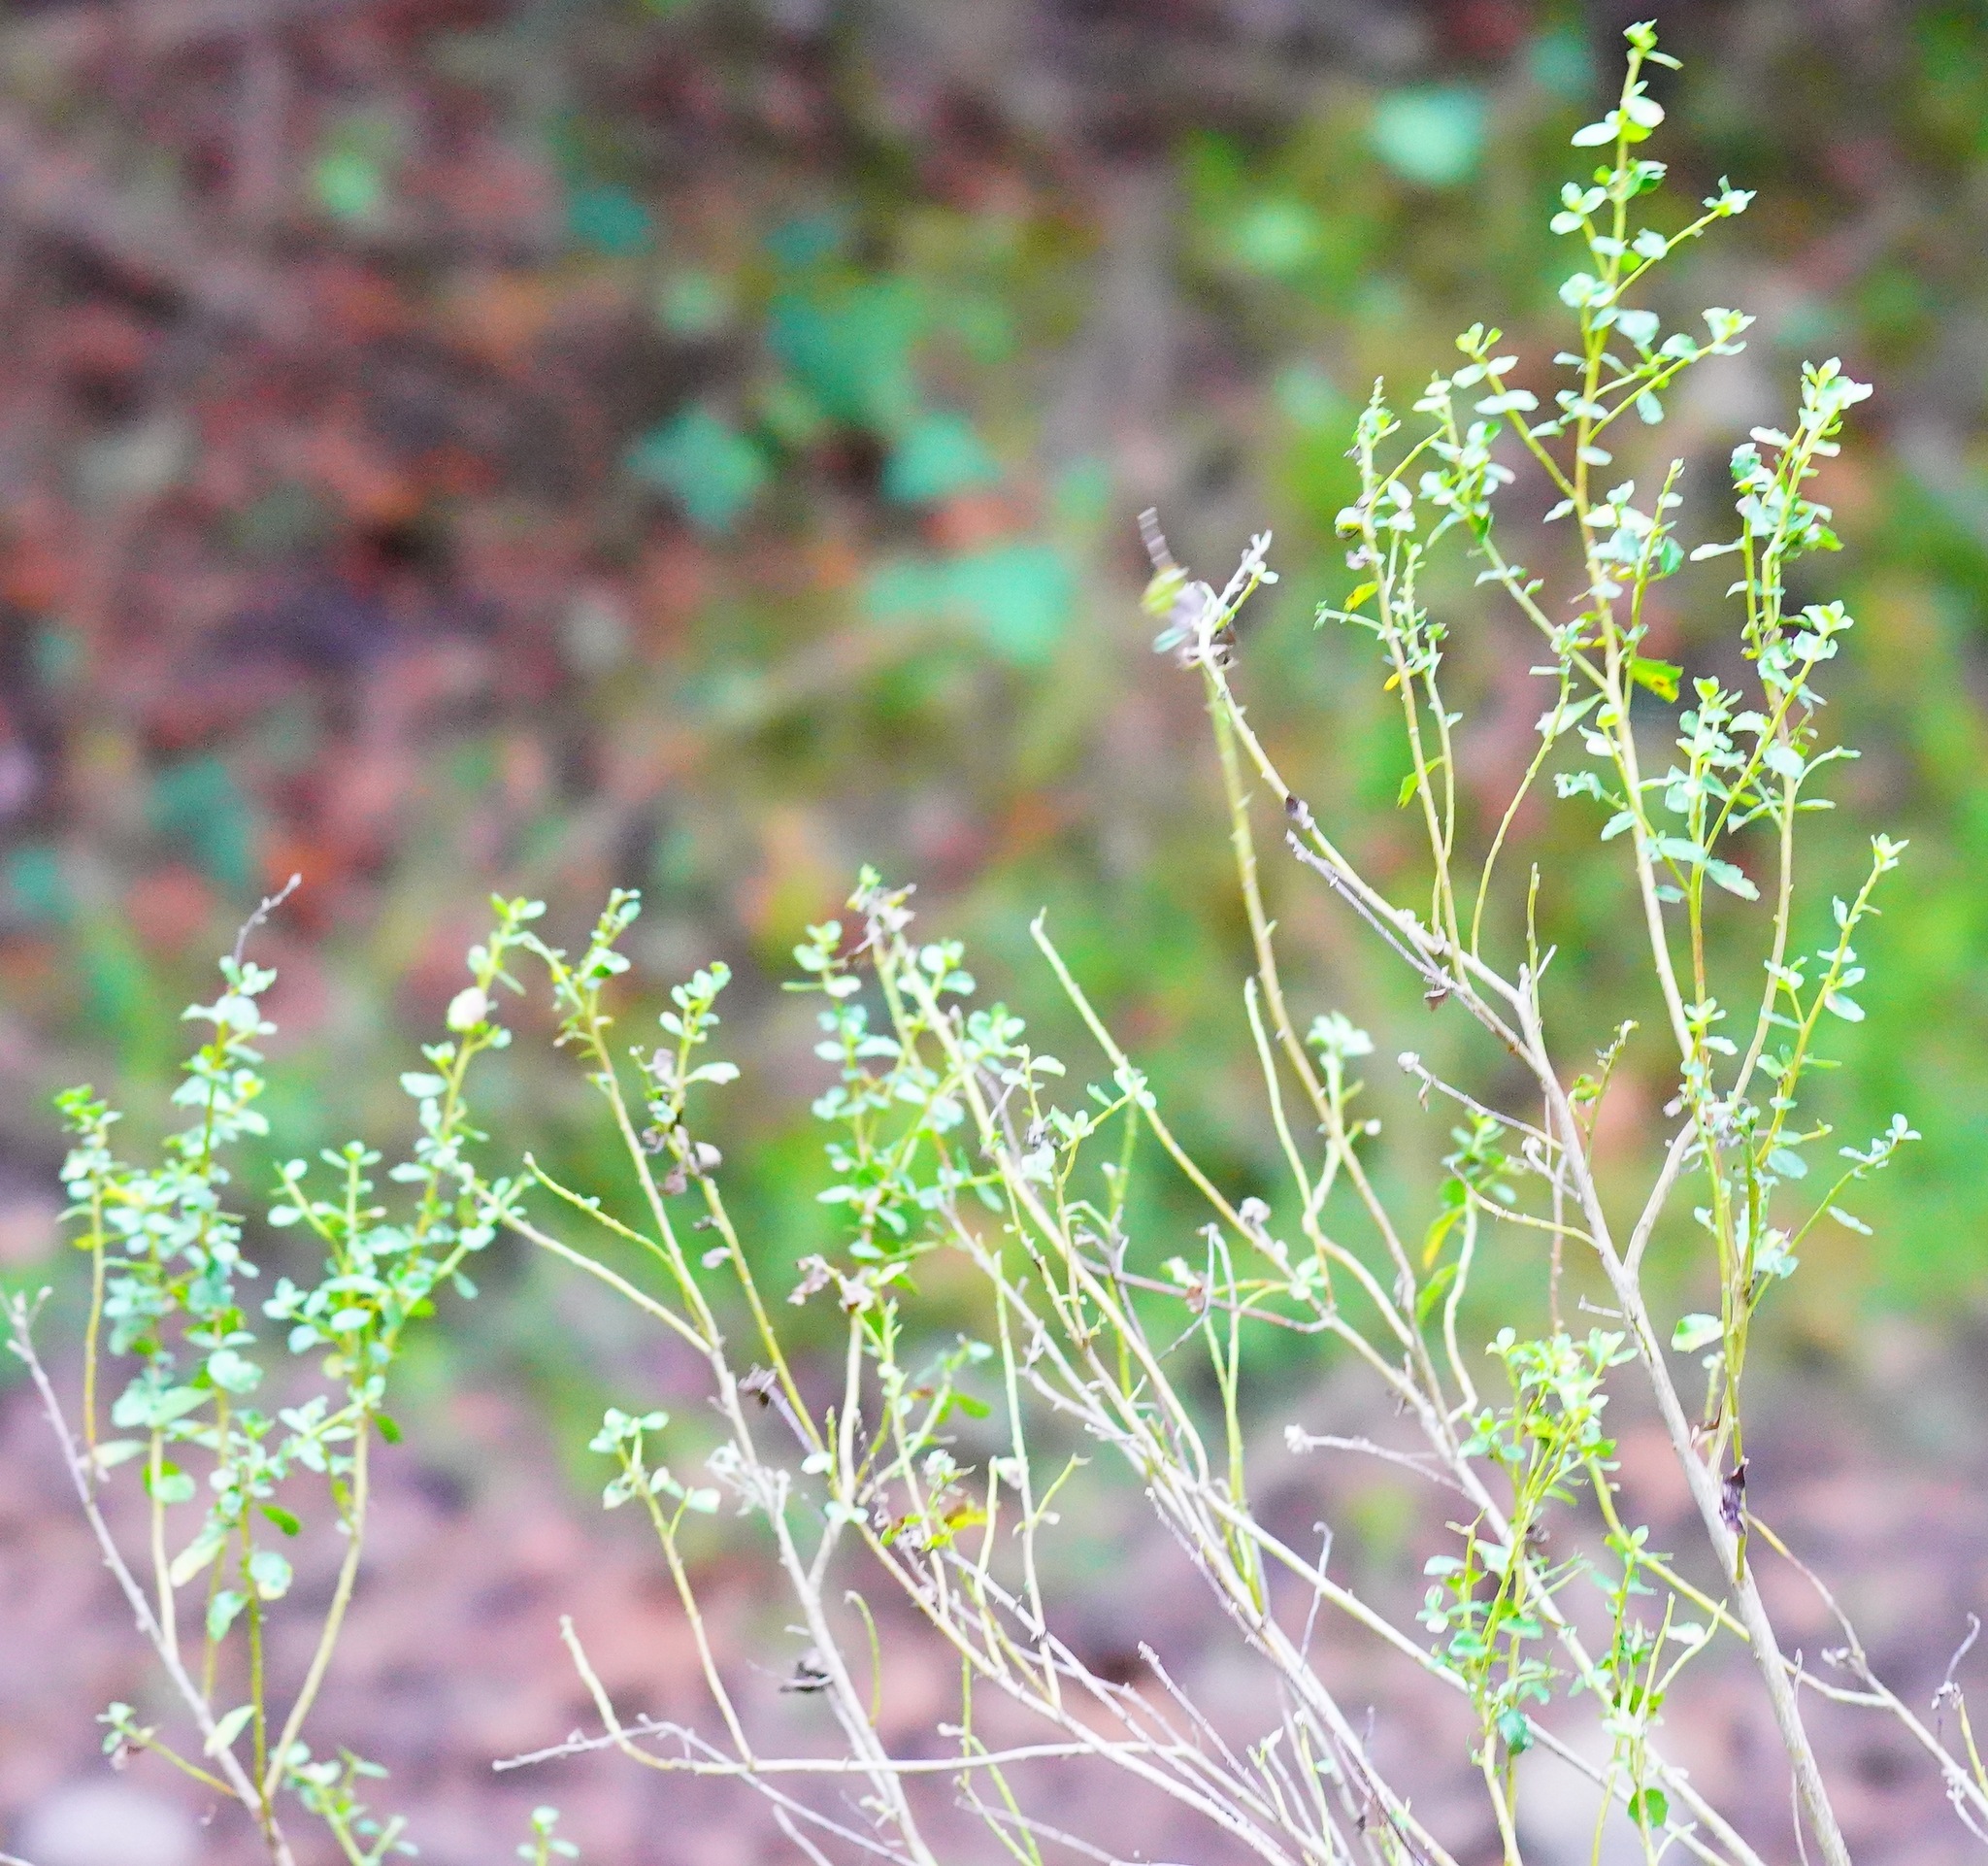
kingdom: Plantae
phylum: Tracheophyta
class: Magnoliopsida
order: Asterales
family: Asteraceae
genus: Baccharis
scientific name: Baccharis pilularis
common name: Coyotebrush
